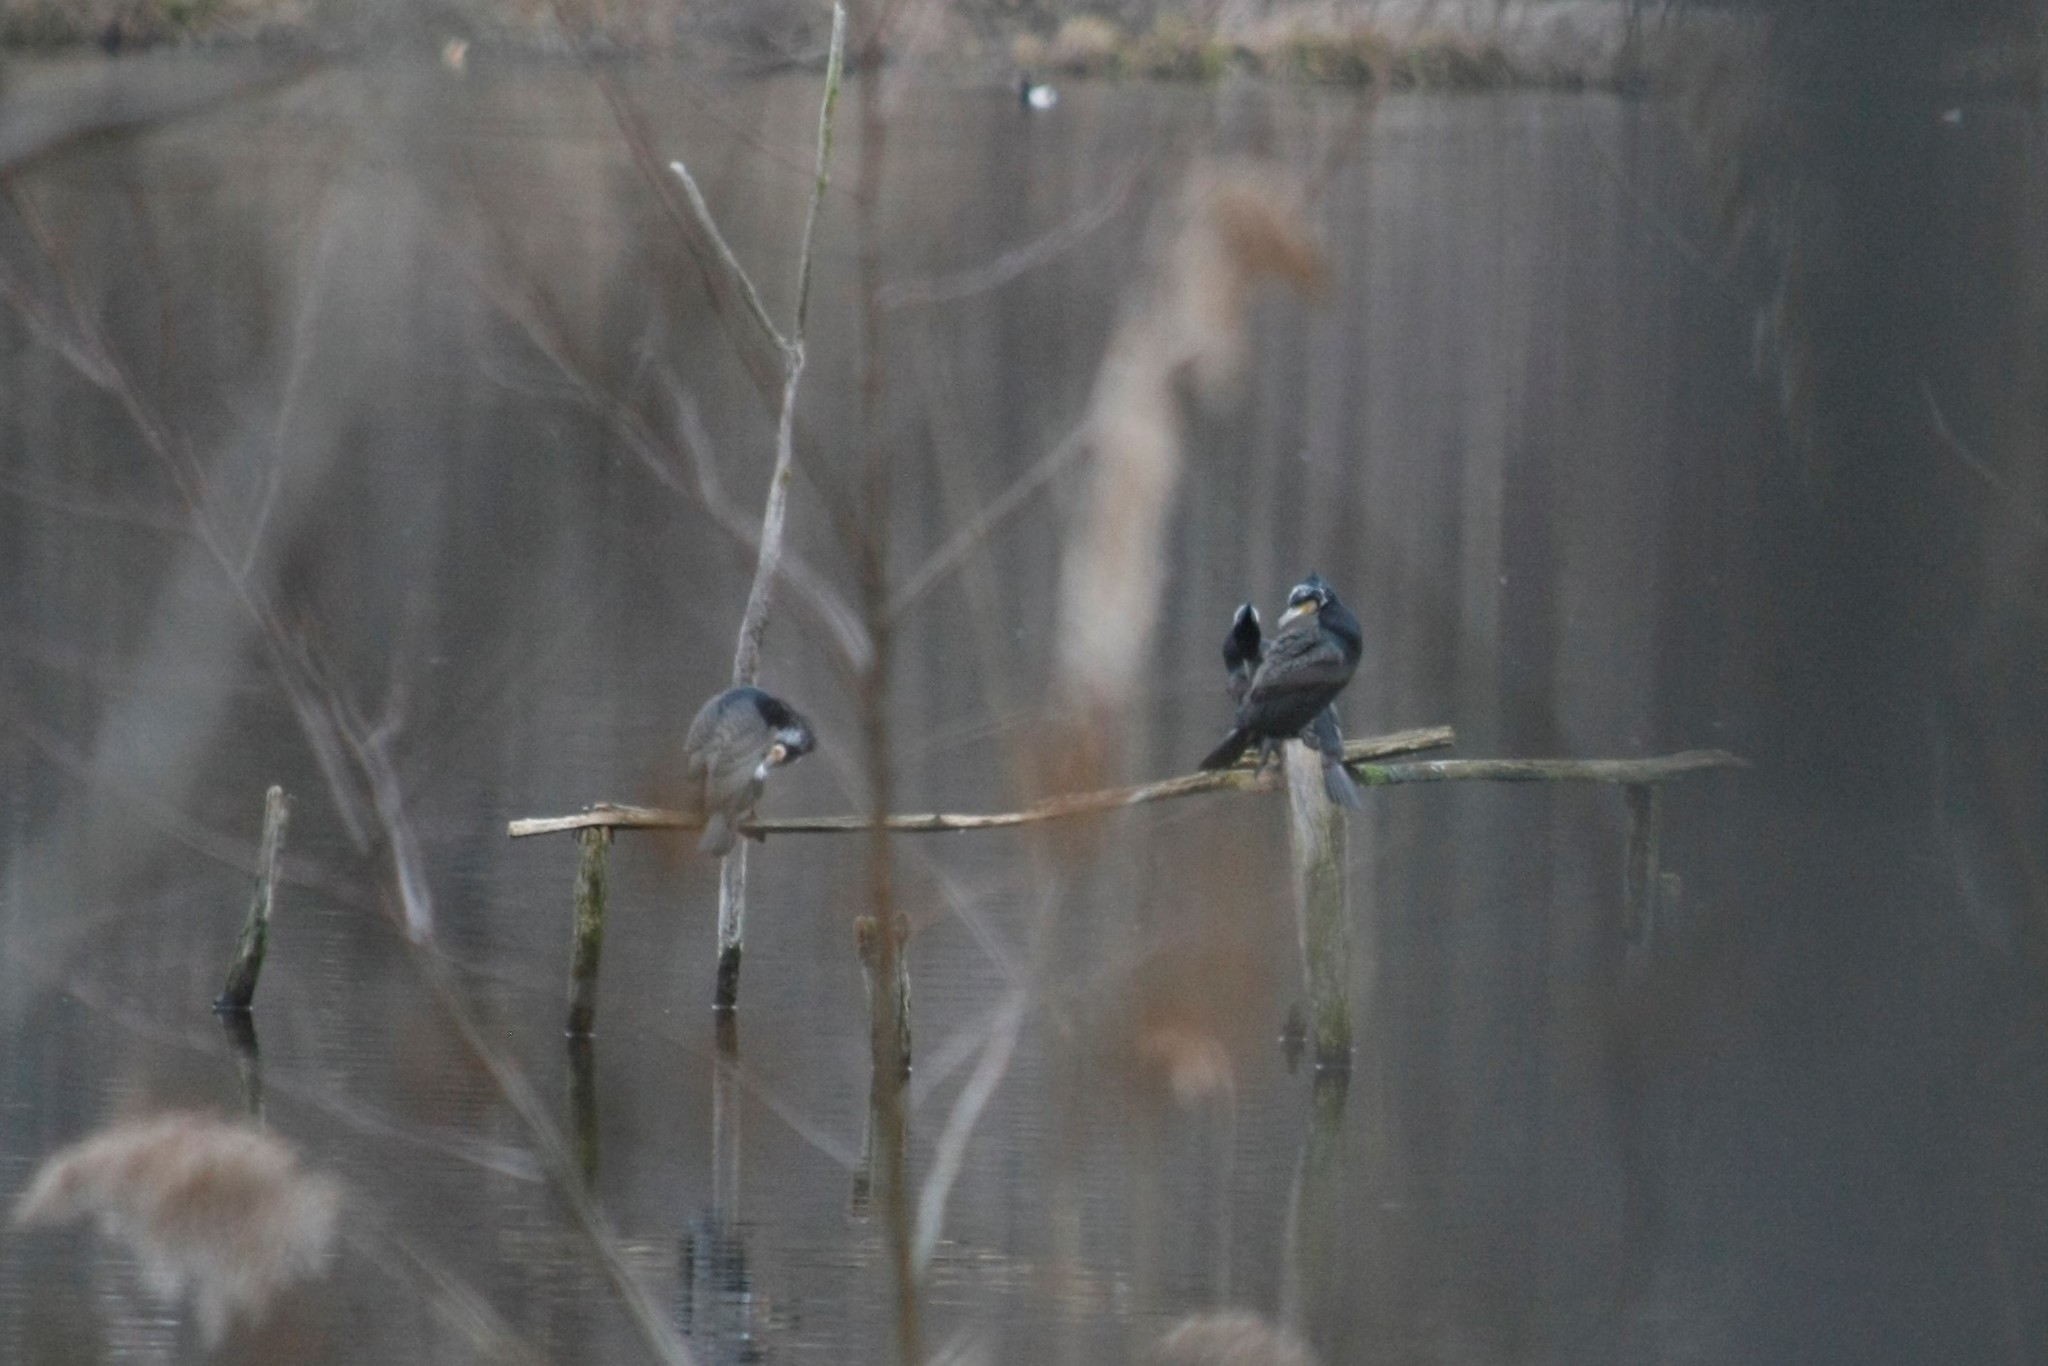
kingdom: Animalia
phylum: Chordata
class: Aves
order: Suliformes
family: Phalacrocoracidae
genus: Phalacrocorax
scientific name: Phalacrocorax carbo
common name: Great cormorant
